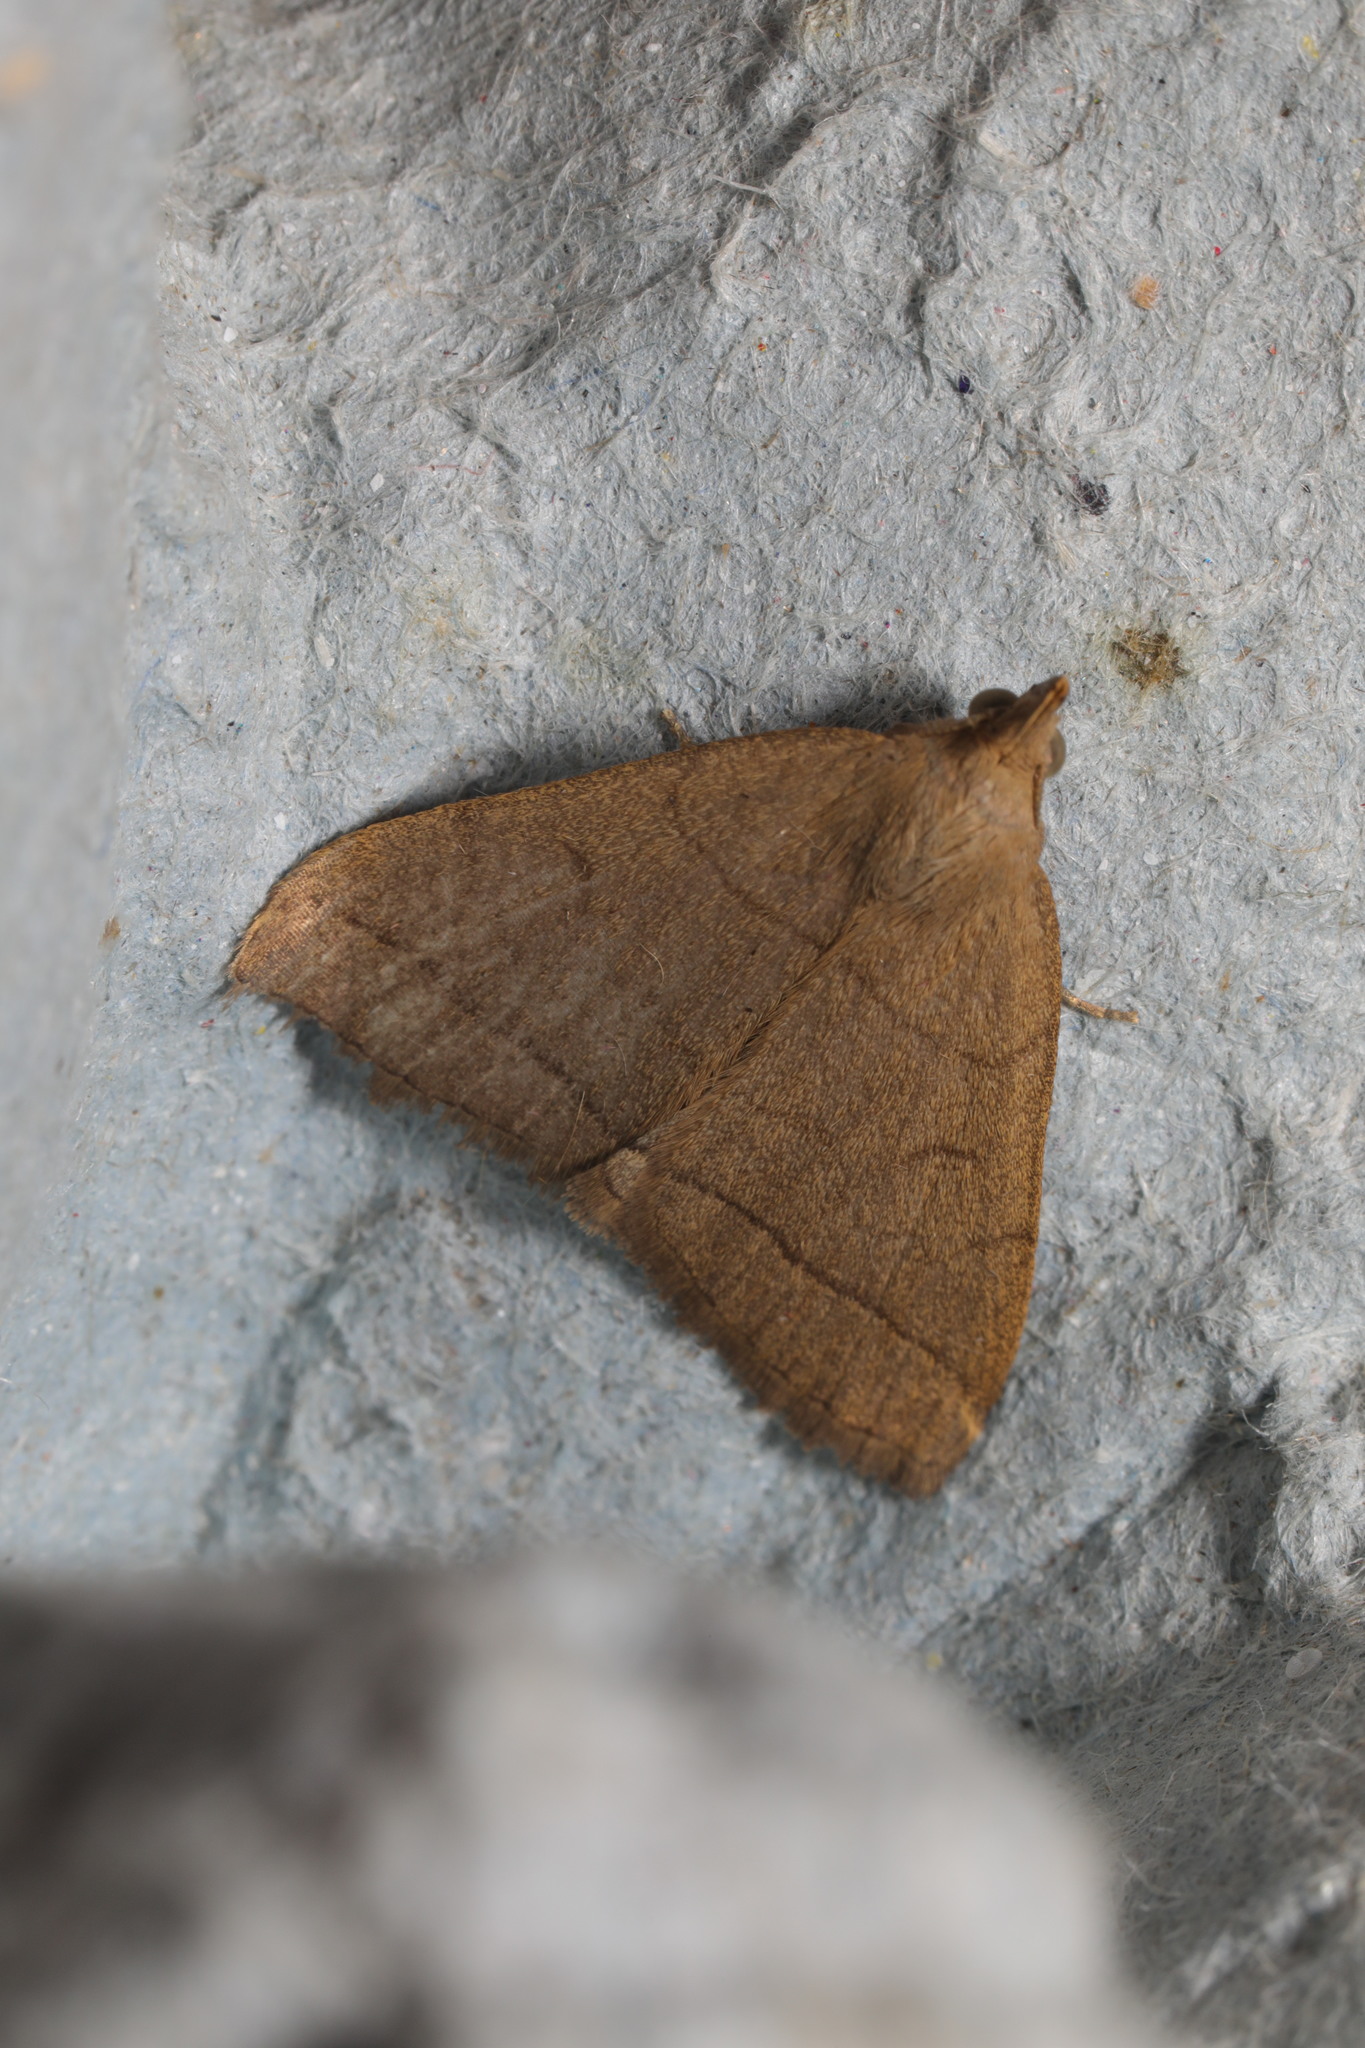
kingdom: Animalia
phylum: Arthropoda
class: Insecta
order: Lepidoptera
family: Erebidae
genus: Herminia
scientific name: Herminia tarsipennalis
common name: Fan-foot
